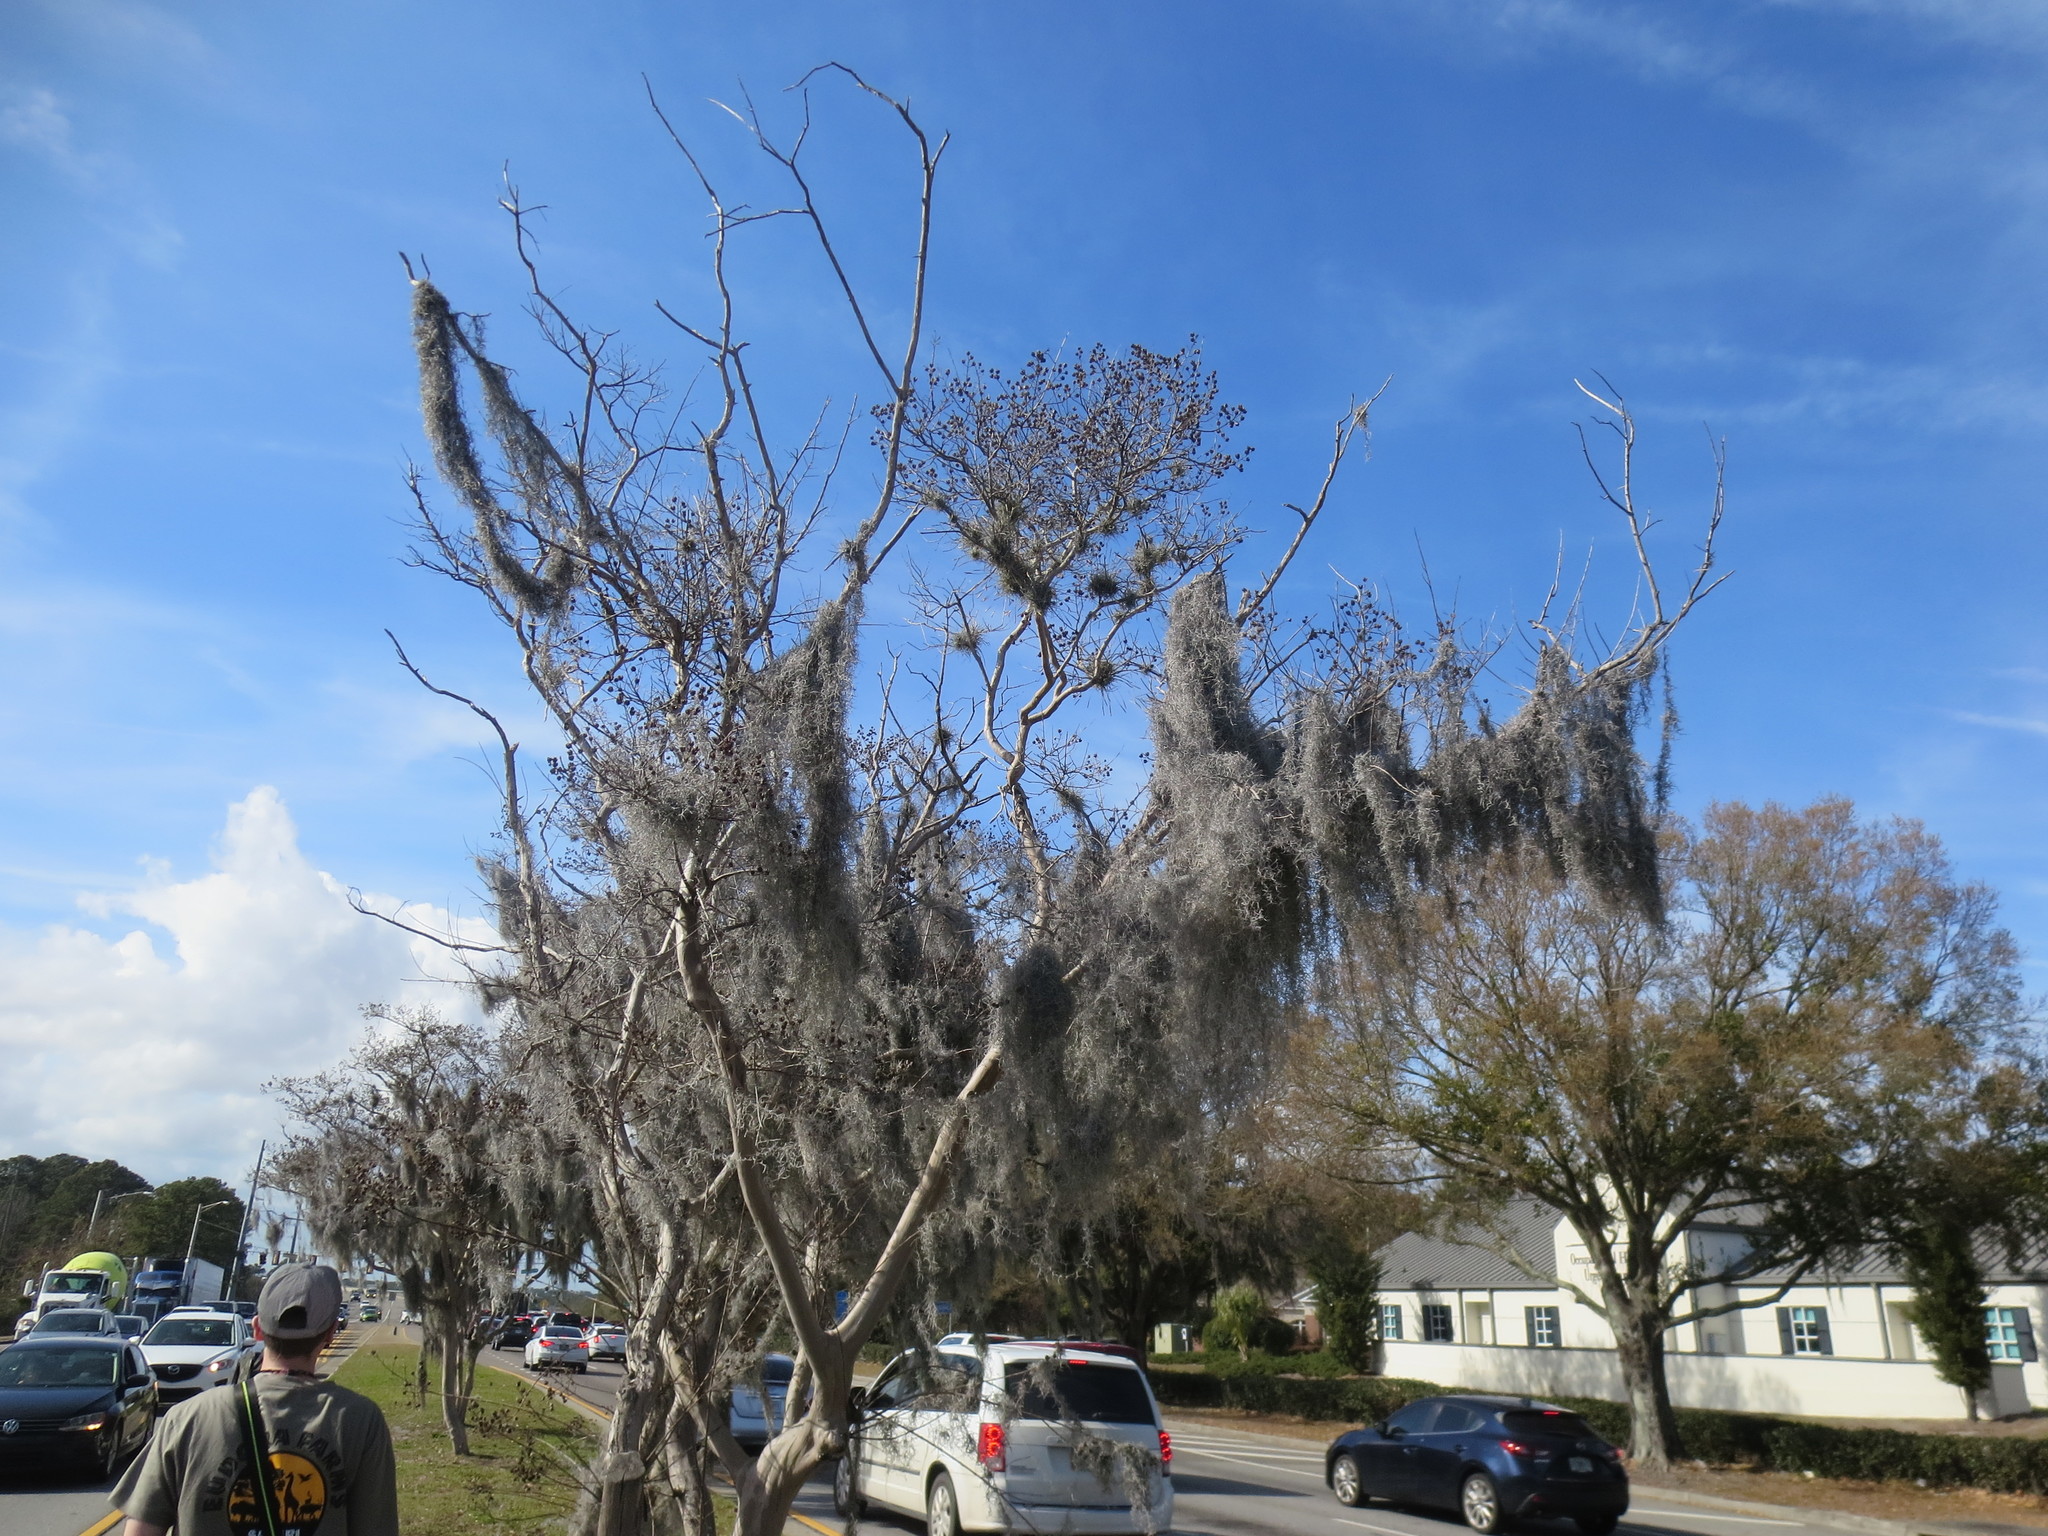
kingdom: Plantae
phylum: Tracheophyta
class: Liliopsida
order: Poales
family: Bromeliaceae
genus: Tillandsia
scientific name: Tillandsia usneoides
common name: Spanish moss
